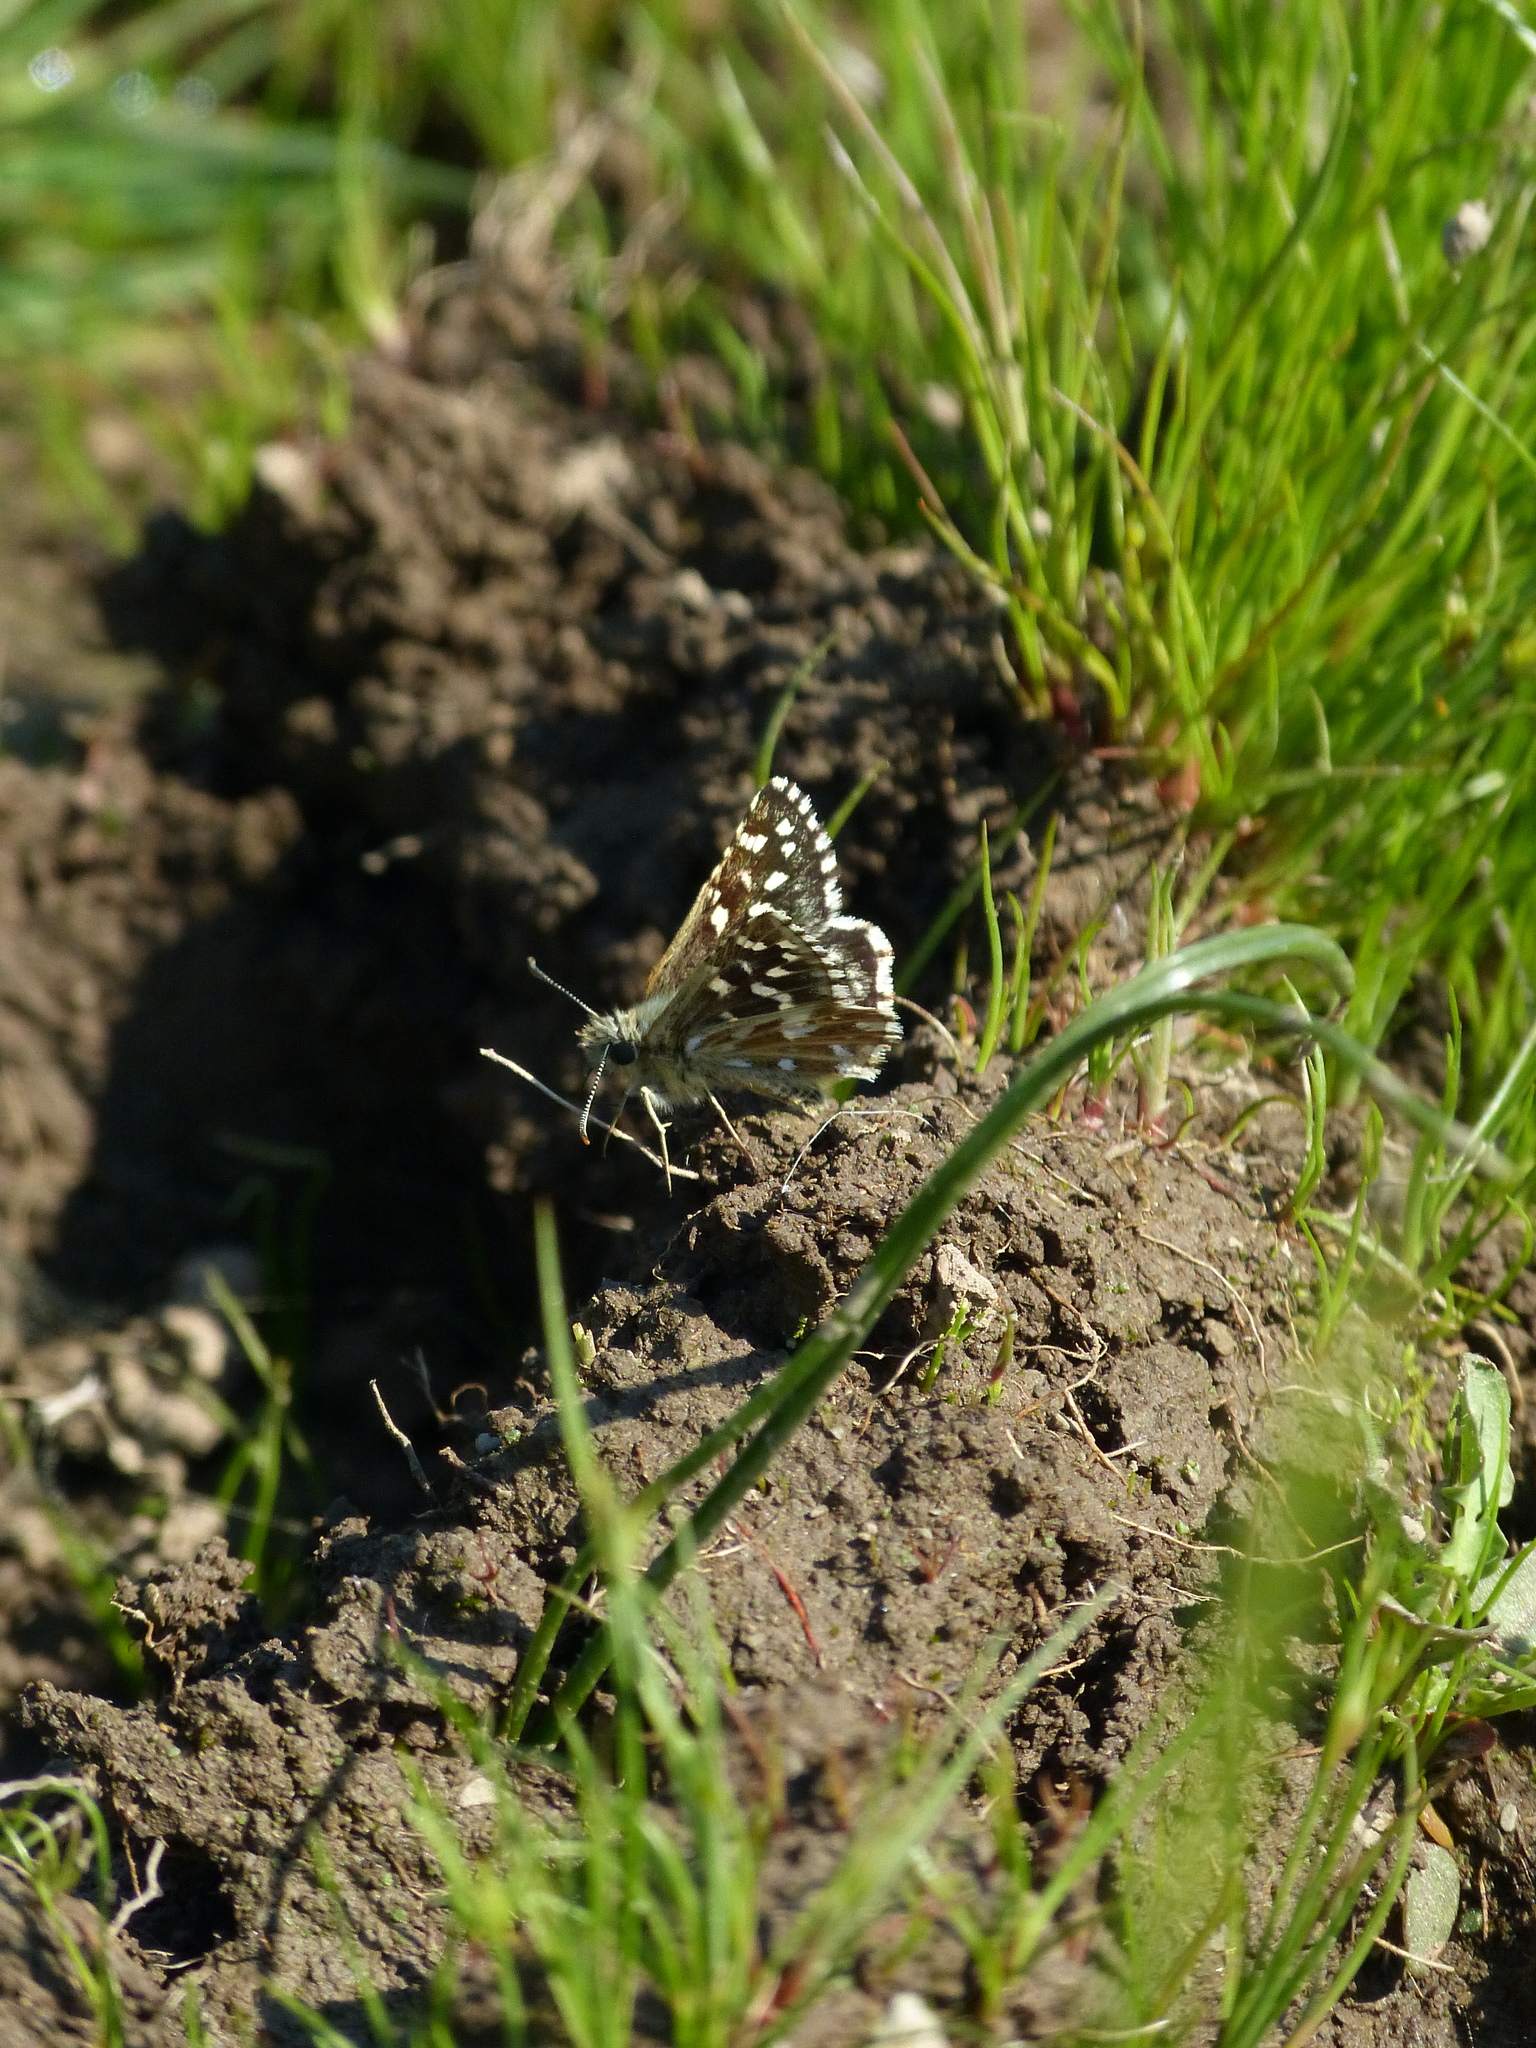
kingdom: Animalia
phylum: Arthropoda
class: Insecta
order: Lepidoptera
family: Hesperiidae
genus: Pyrgus
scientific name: Pyrgus malvoides
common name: Southern grizzled skipper
